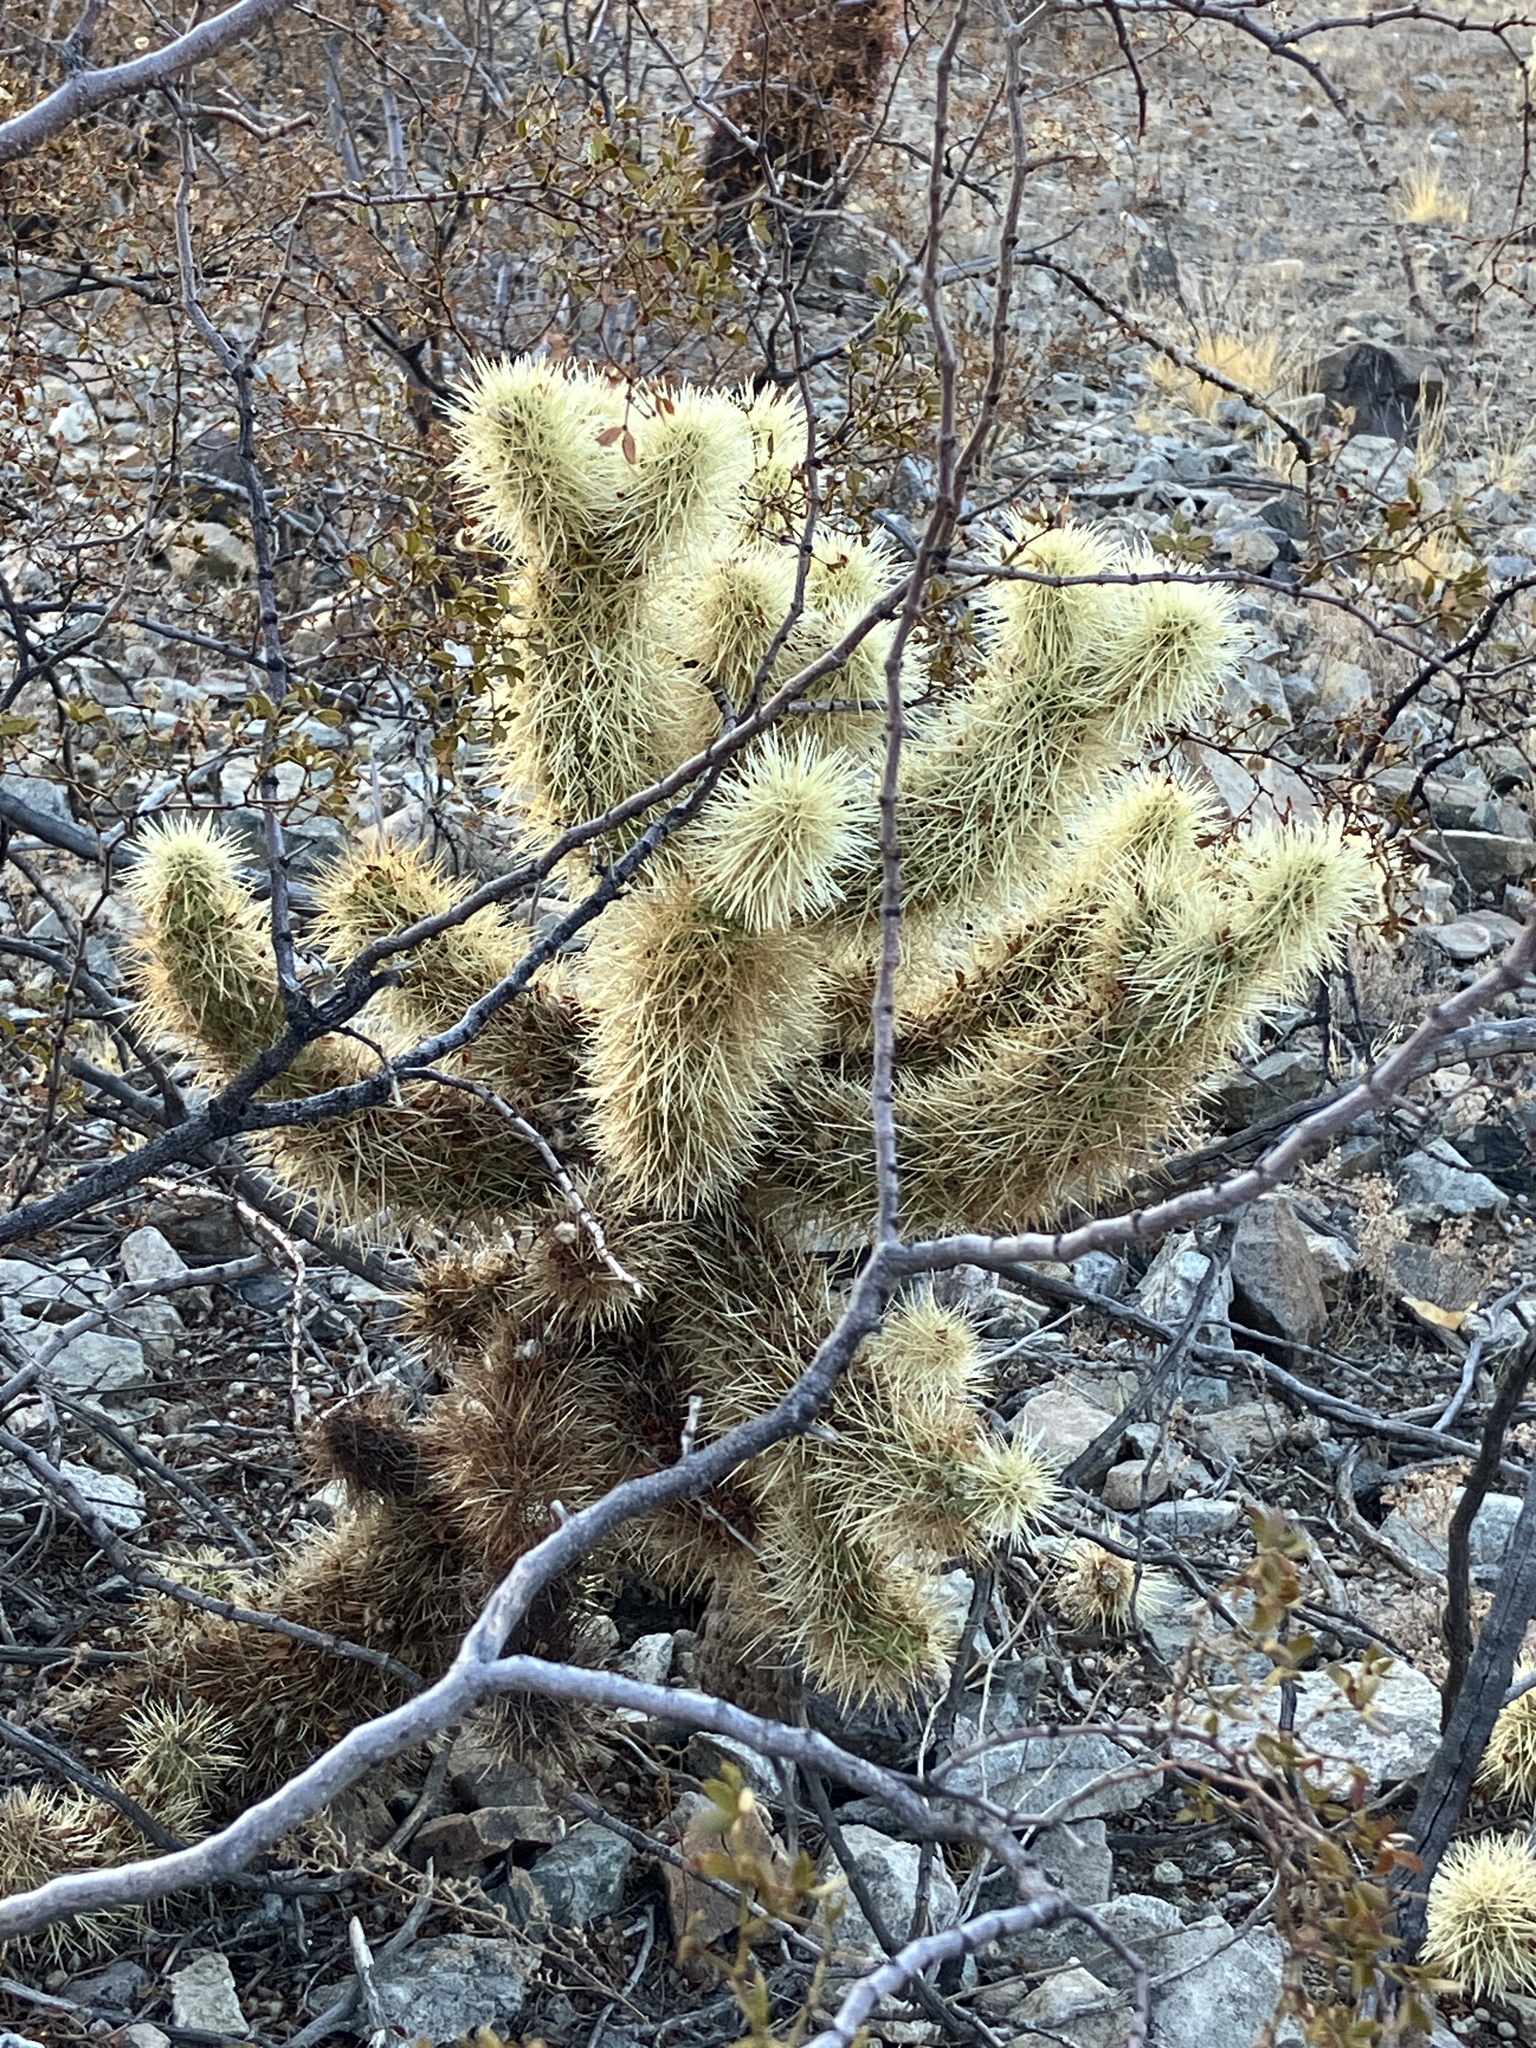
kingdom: Plantae
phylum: Tracheophyta
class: Magnoliopsida
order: Caryophyllales
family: Cactaceae
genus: Cylindropuntia
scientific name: Cylindropuntia fosbergii
